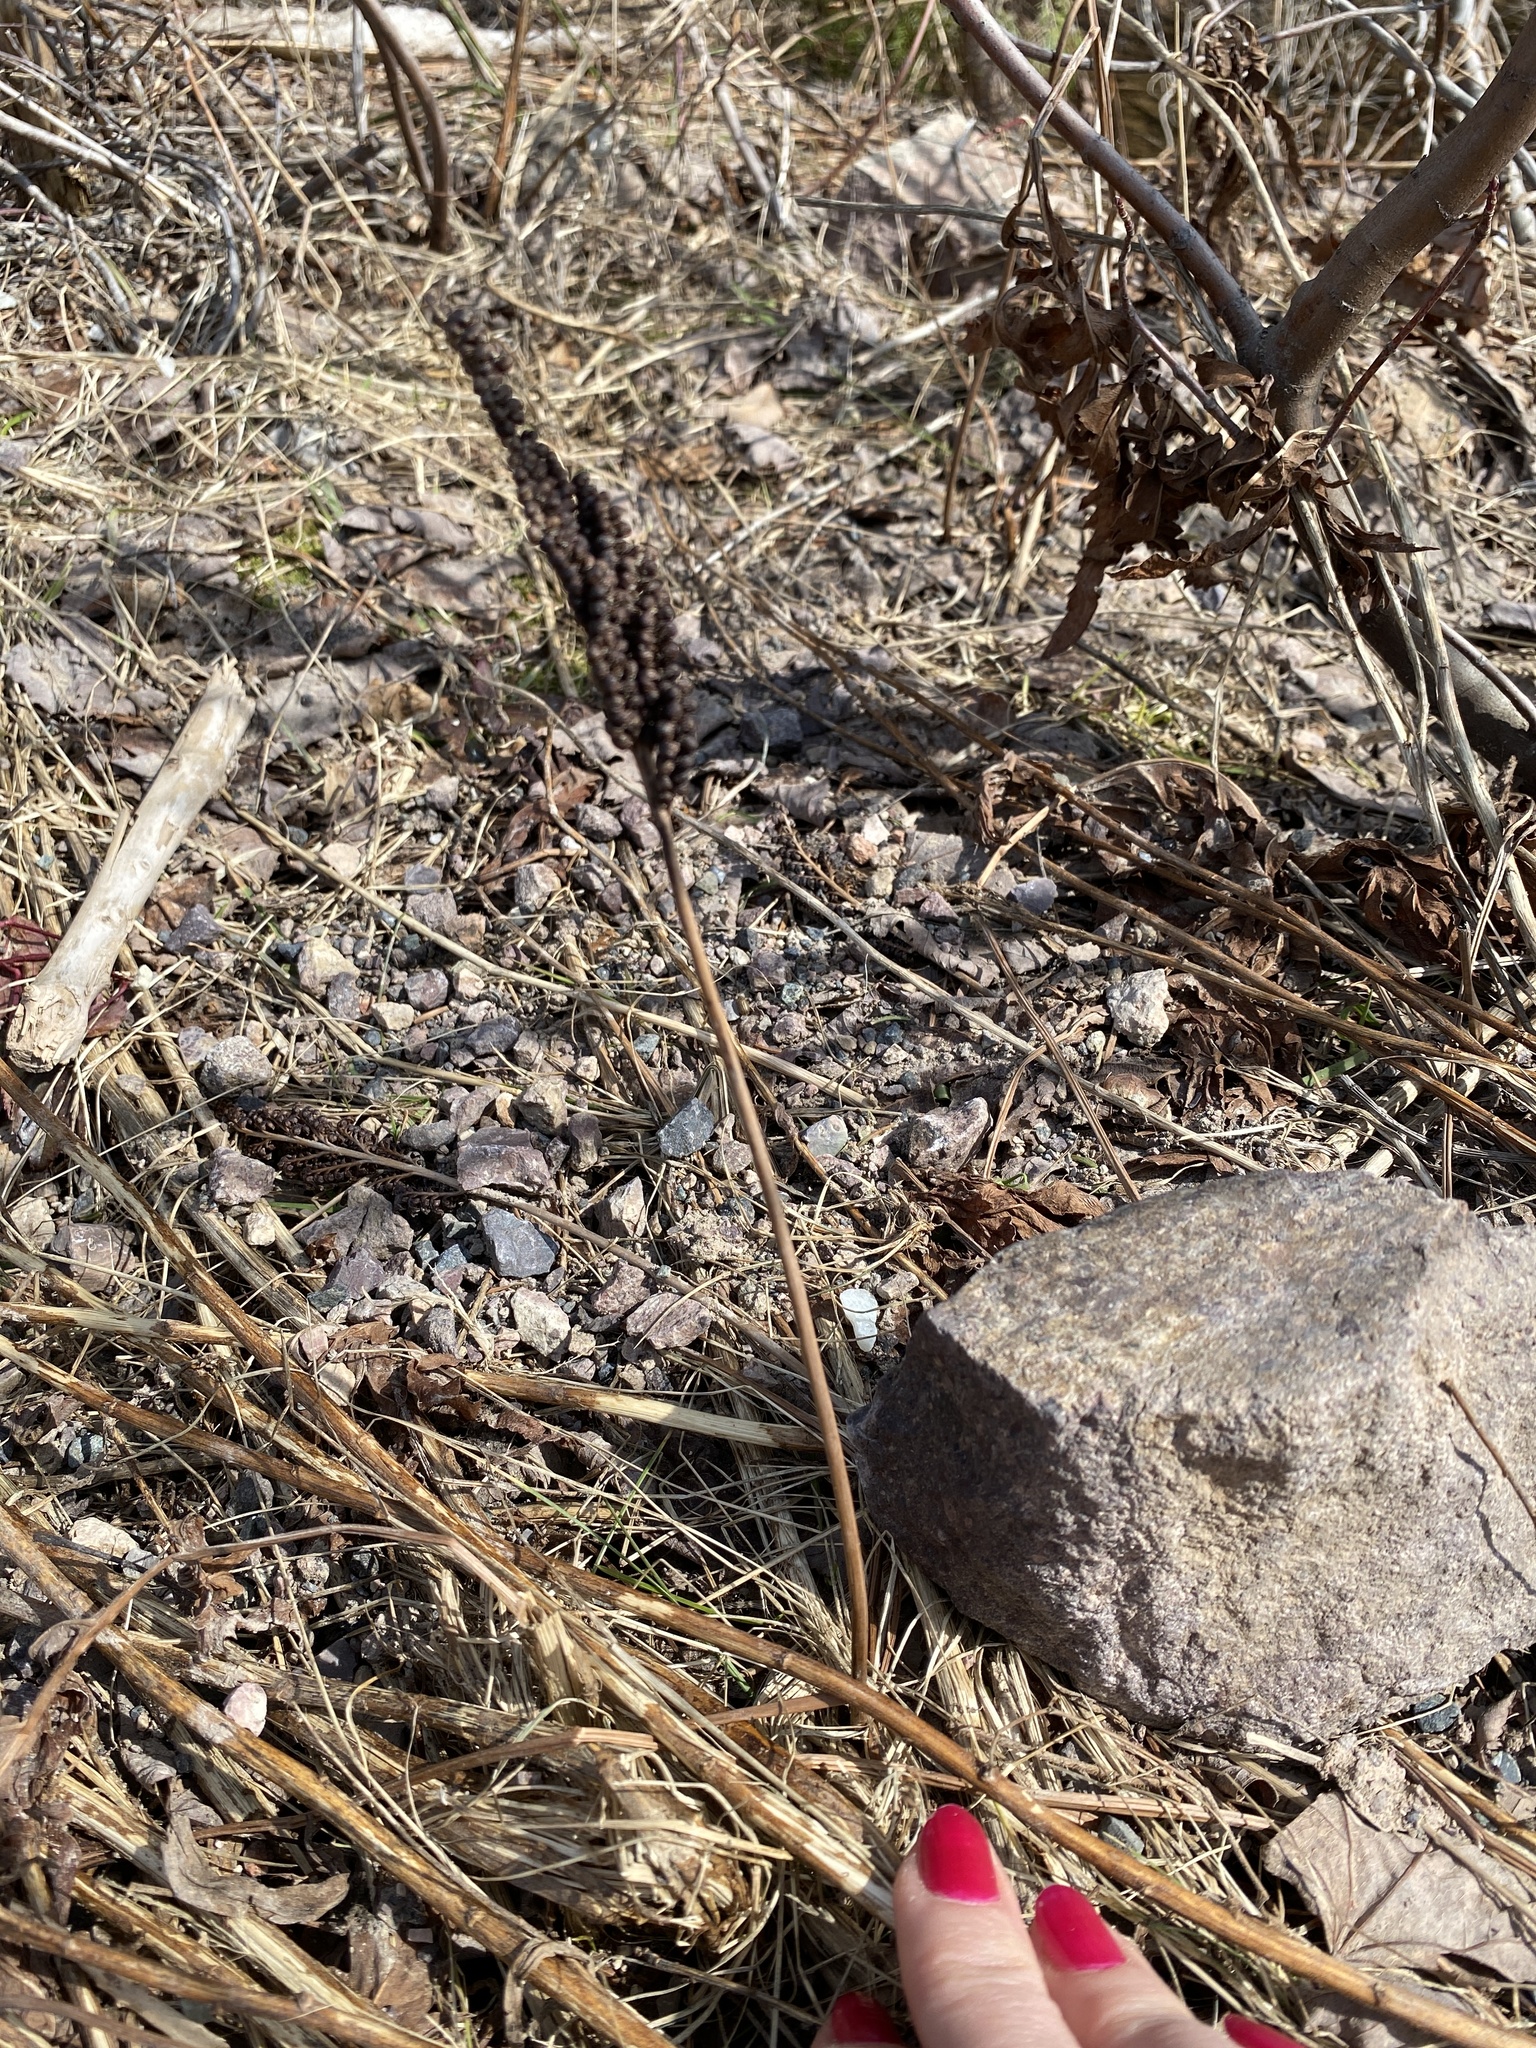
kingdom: Plantae
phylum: Tracheophyta
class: Polypodiopsida
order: Polypodiales
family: Onocleaceae
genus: Onoclea
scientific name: Onoclea sensibilis
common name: Sensitive fern
